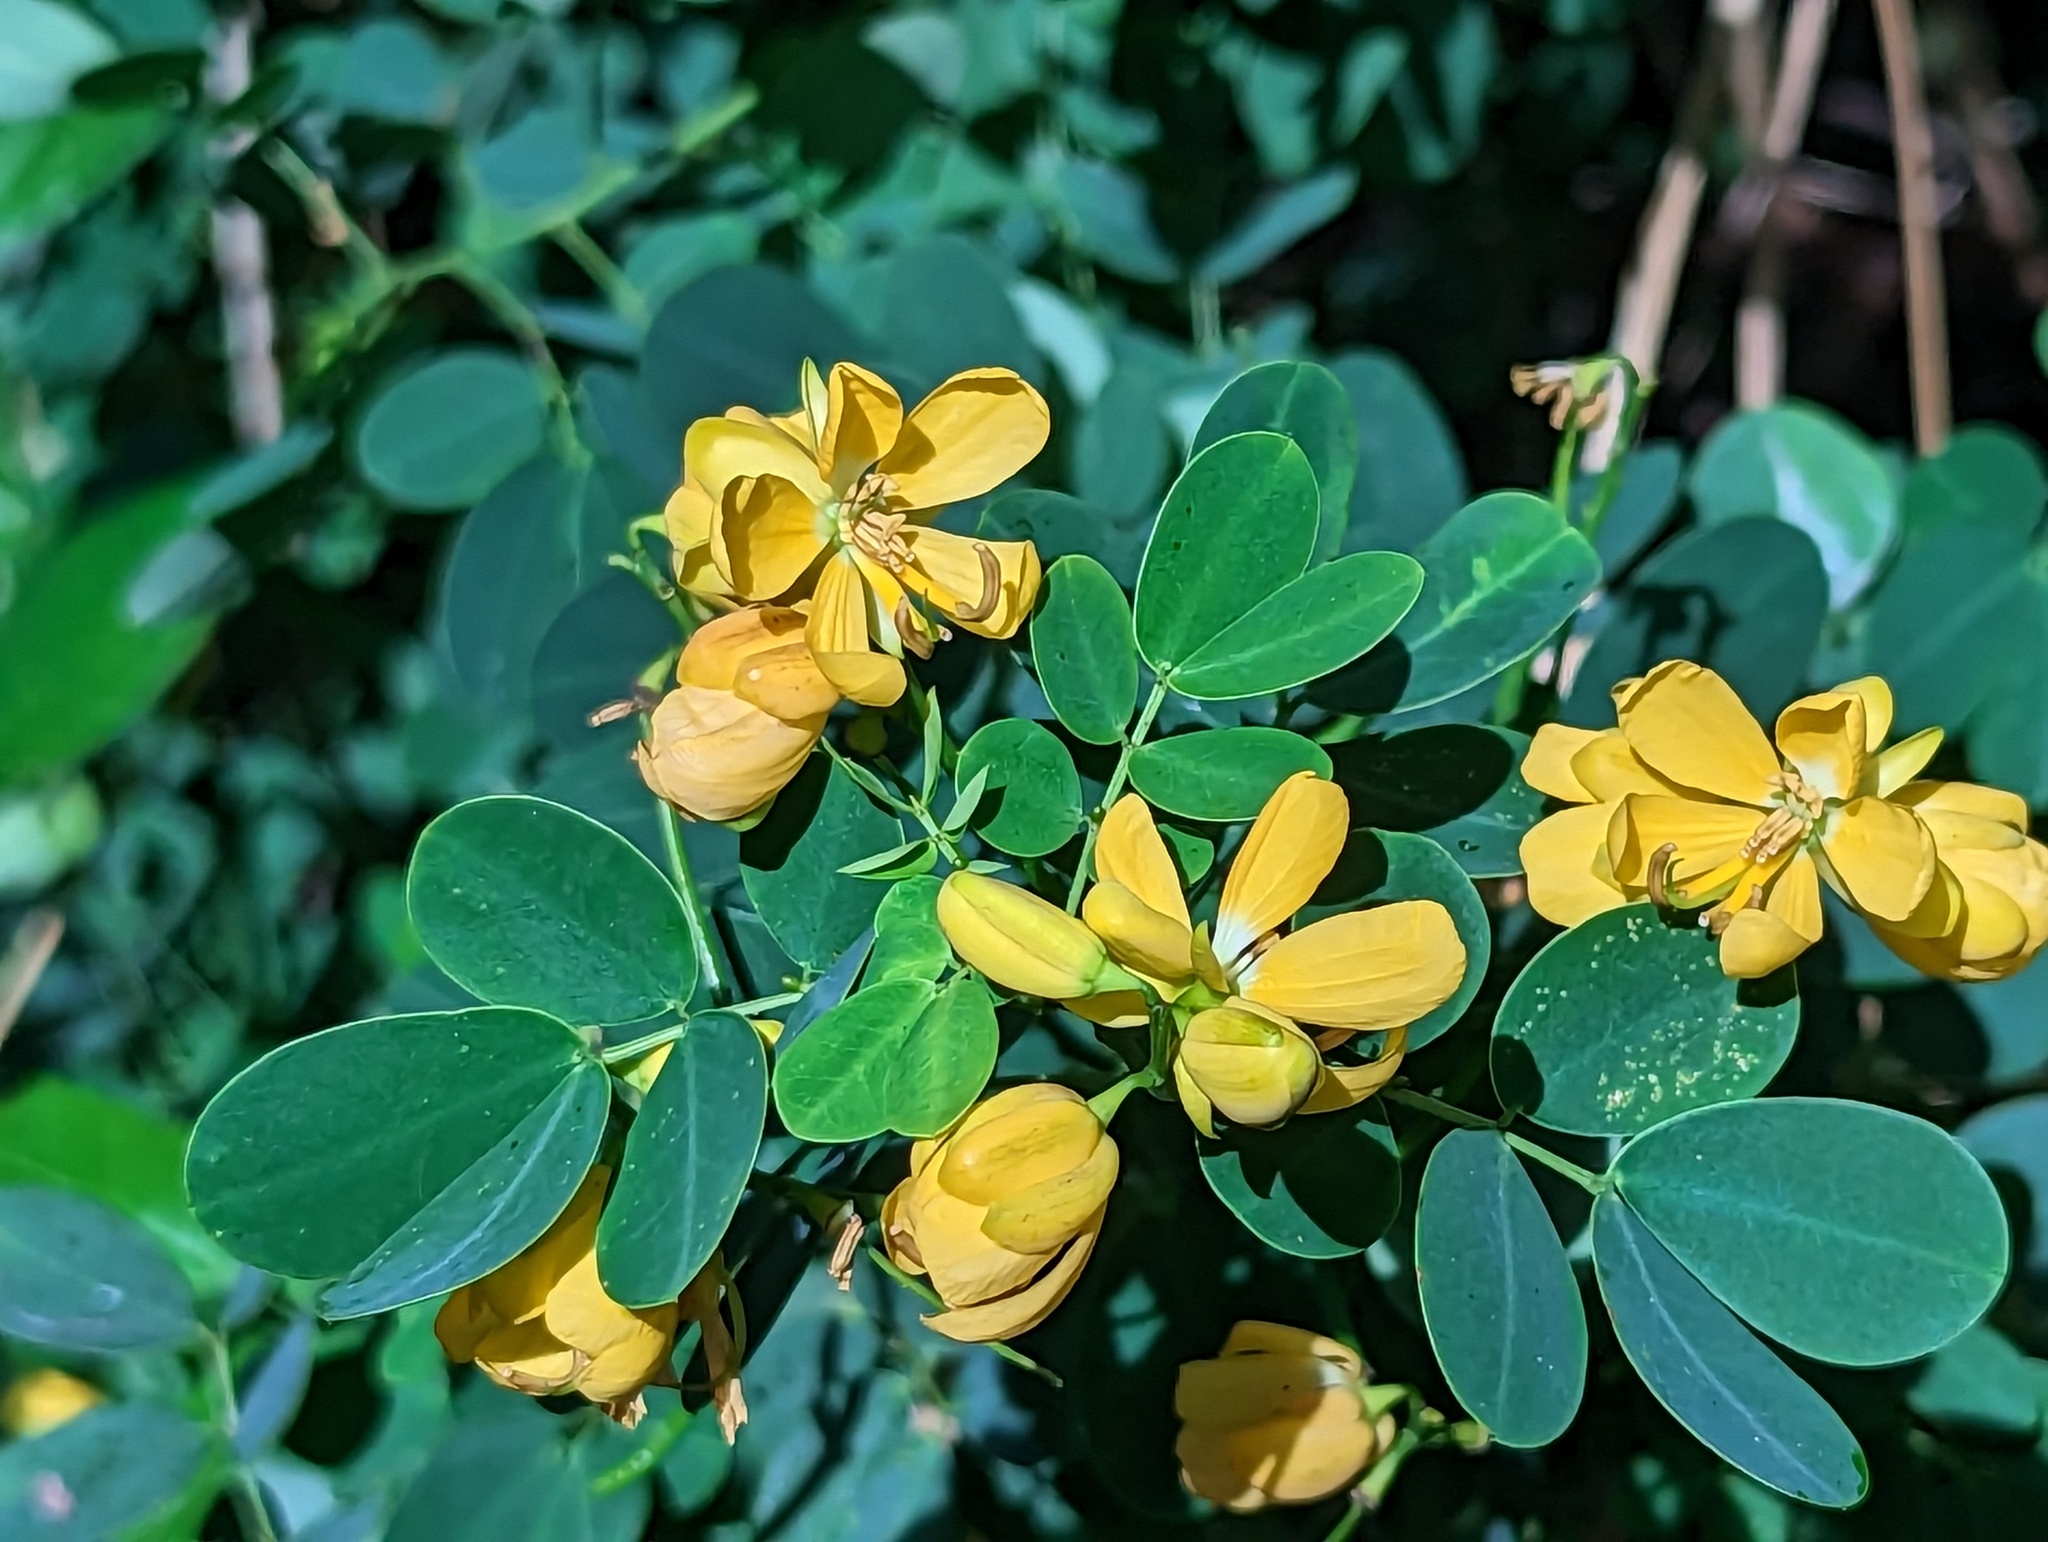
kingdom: Plantae
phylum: Tracheophyta
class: Magnoliopsida
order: Fabales
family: Fabaceae
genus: Senna
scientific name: Senna bicapsularis
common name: Christmasbush
